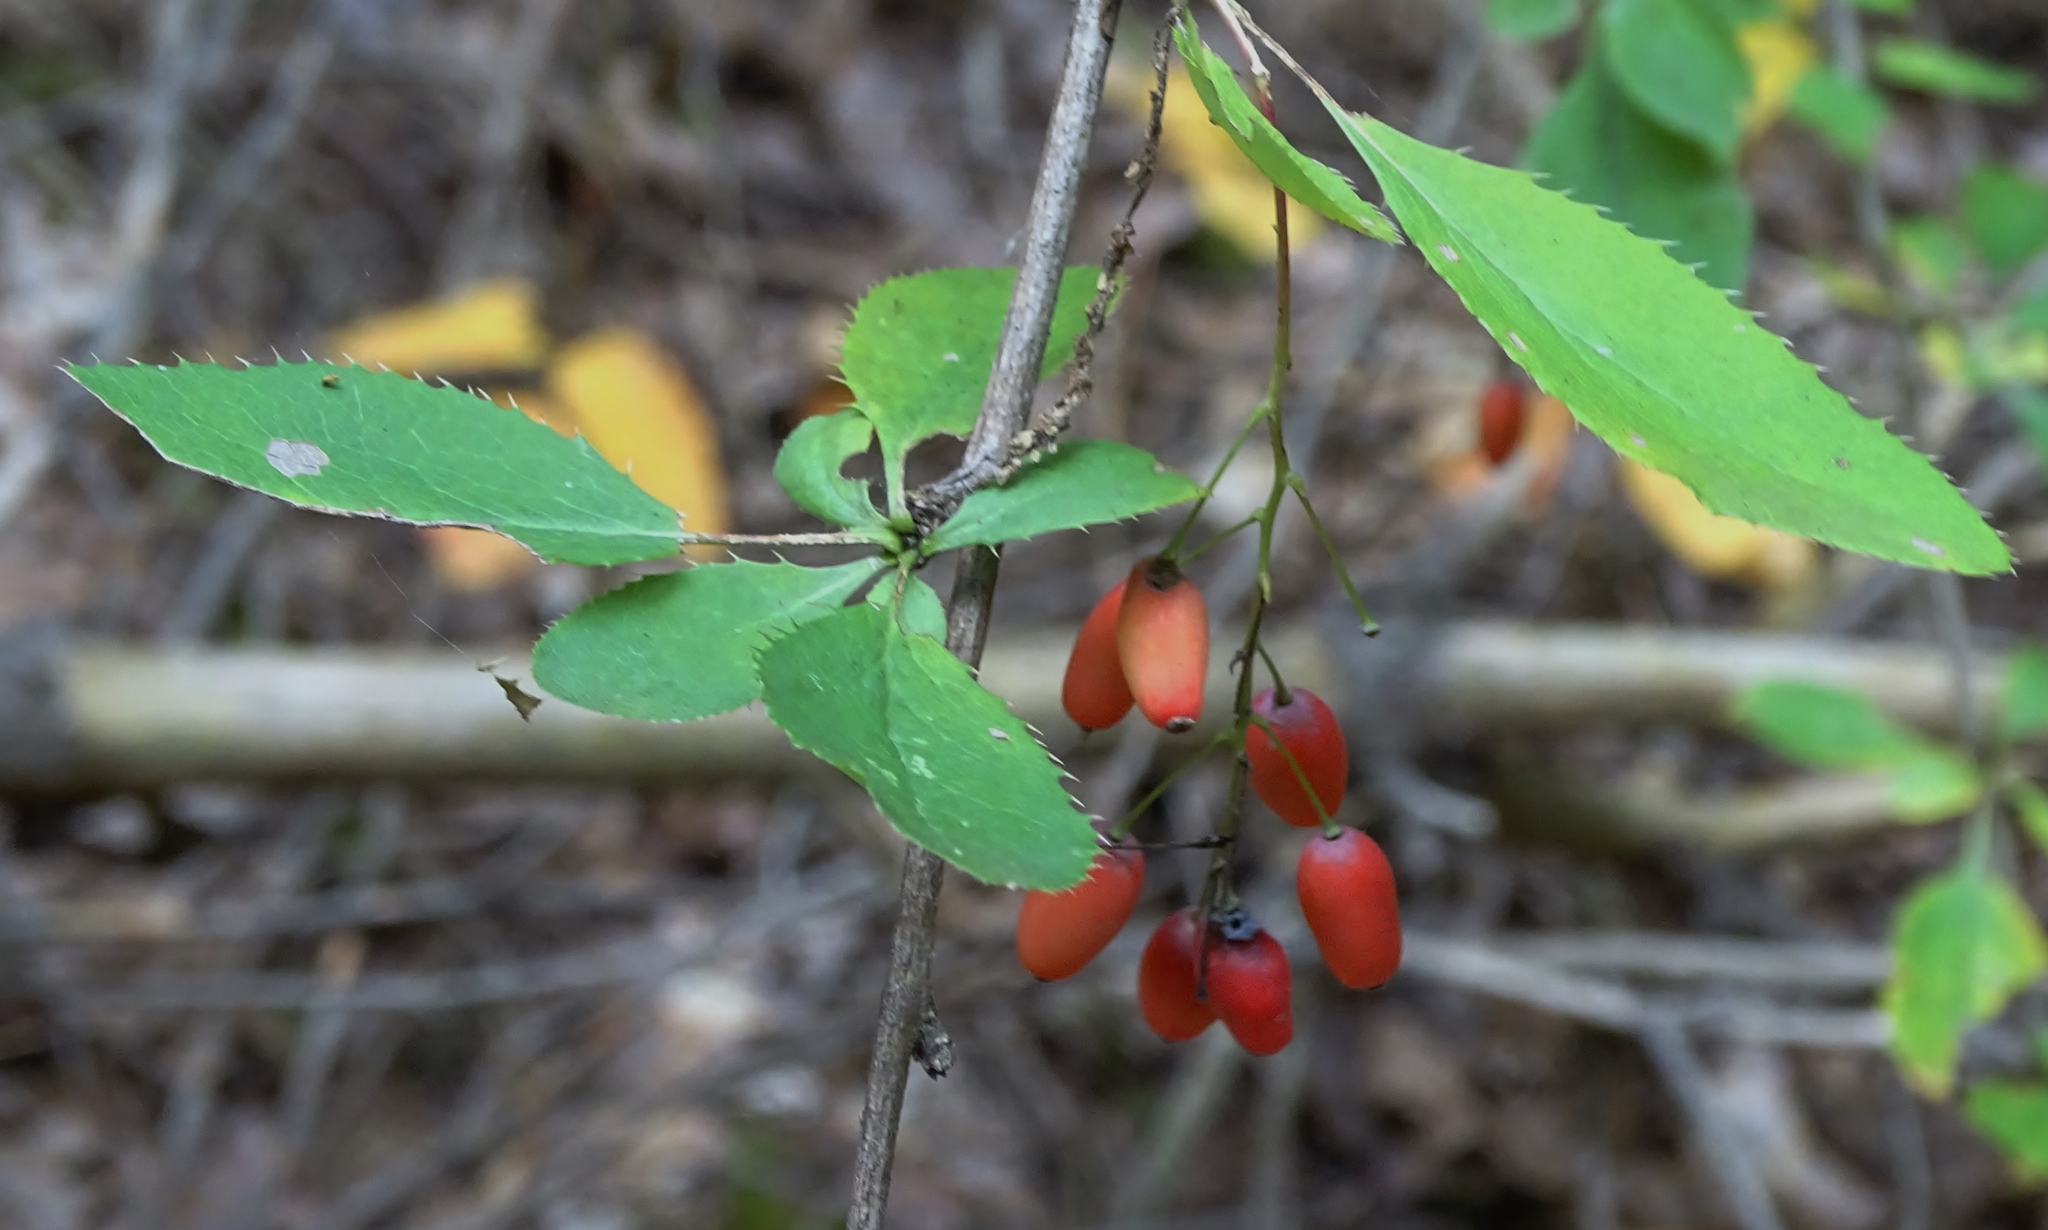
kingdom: Plantae
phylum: Tracheophyta
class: Magnoliopsida
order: Ranunculales
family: Berberidaceae
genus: Berberis
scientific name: Berberis vulgaris
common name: Barberry
